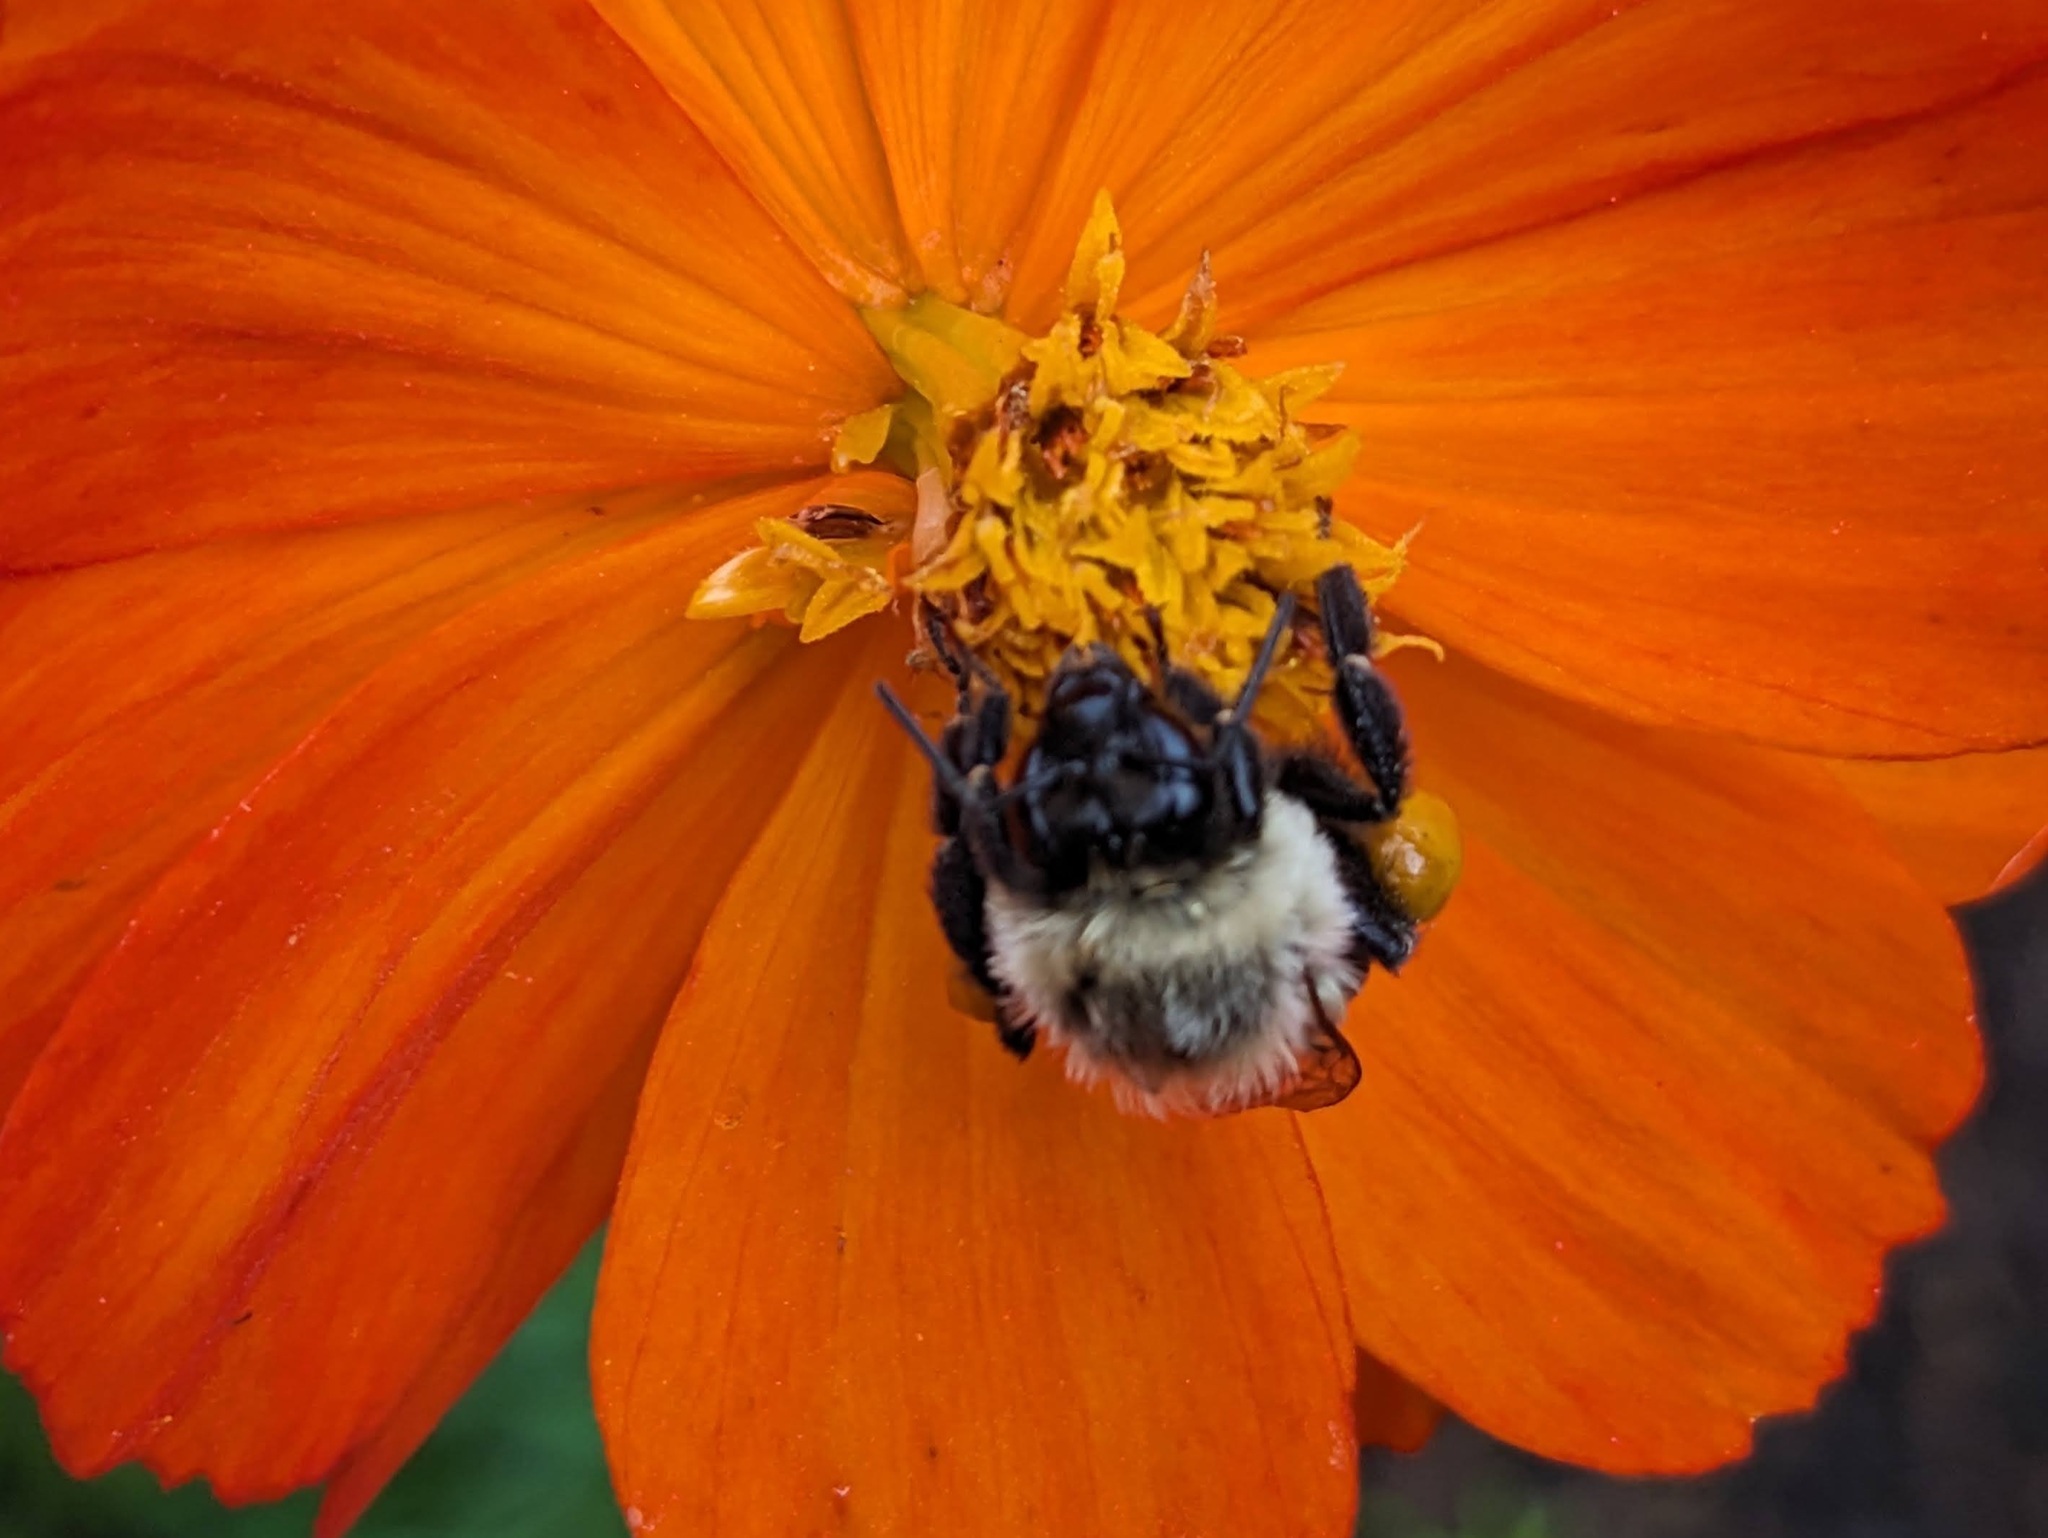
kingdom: Animalia
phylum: Arthropoda
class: Insecta
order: Hymenoptera
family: Apidae
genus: Bombus
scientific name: Bombus impatiens
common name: Common eastern bumble bee
